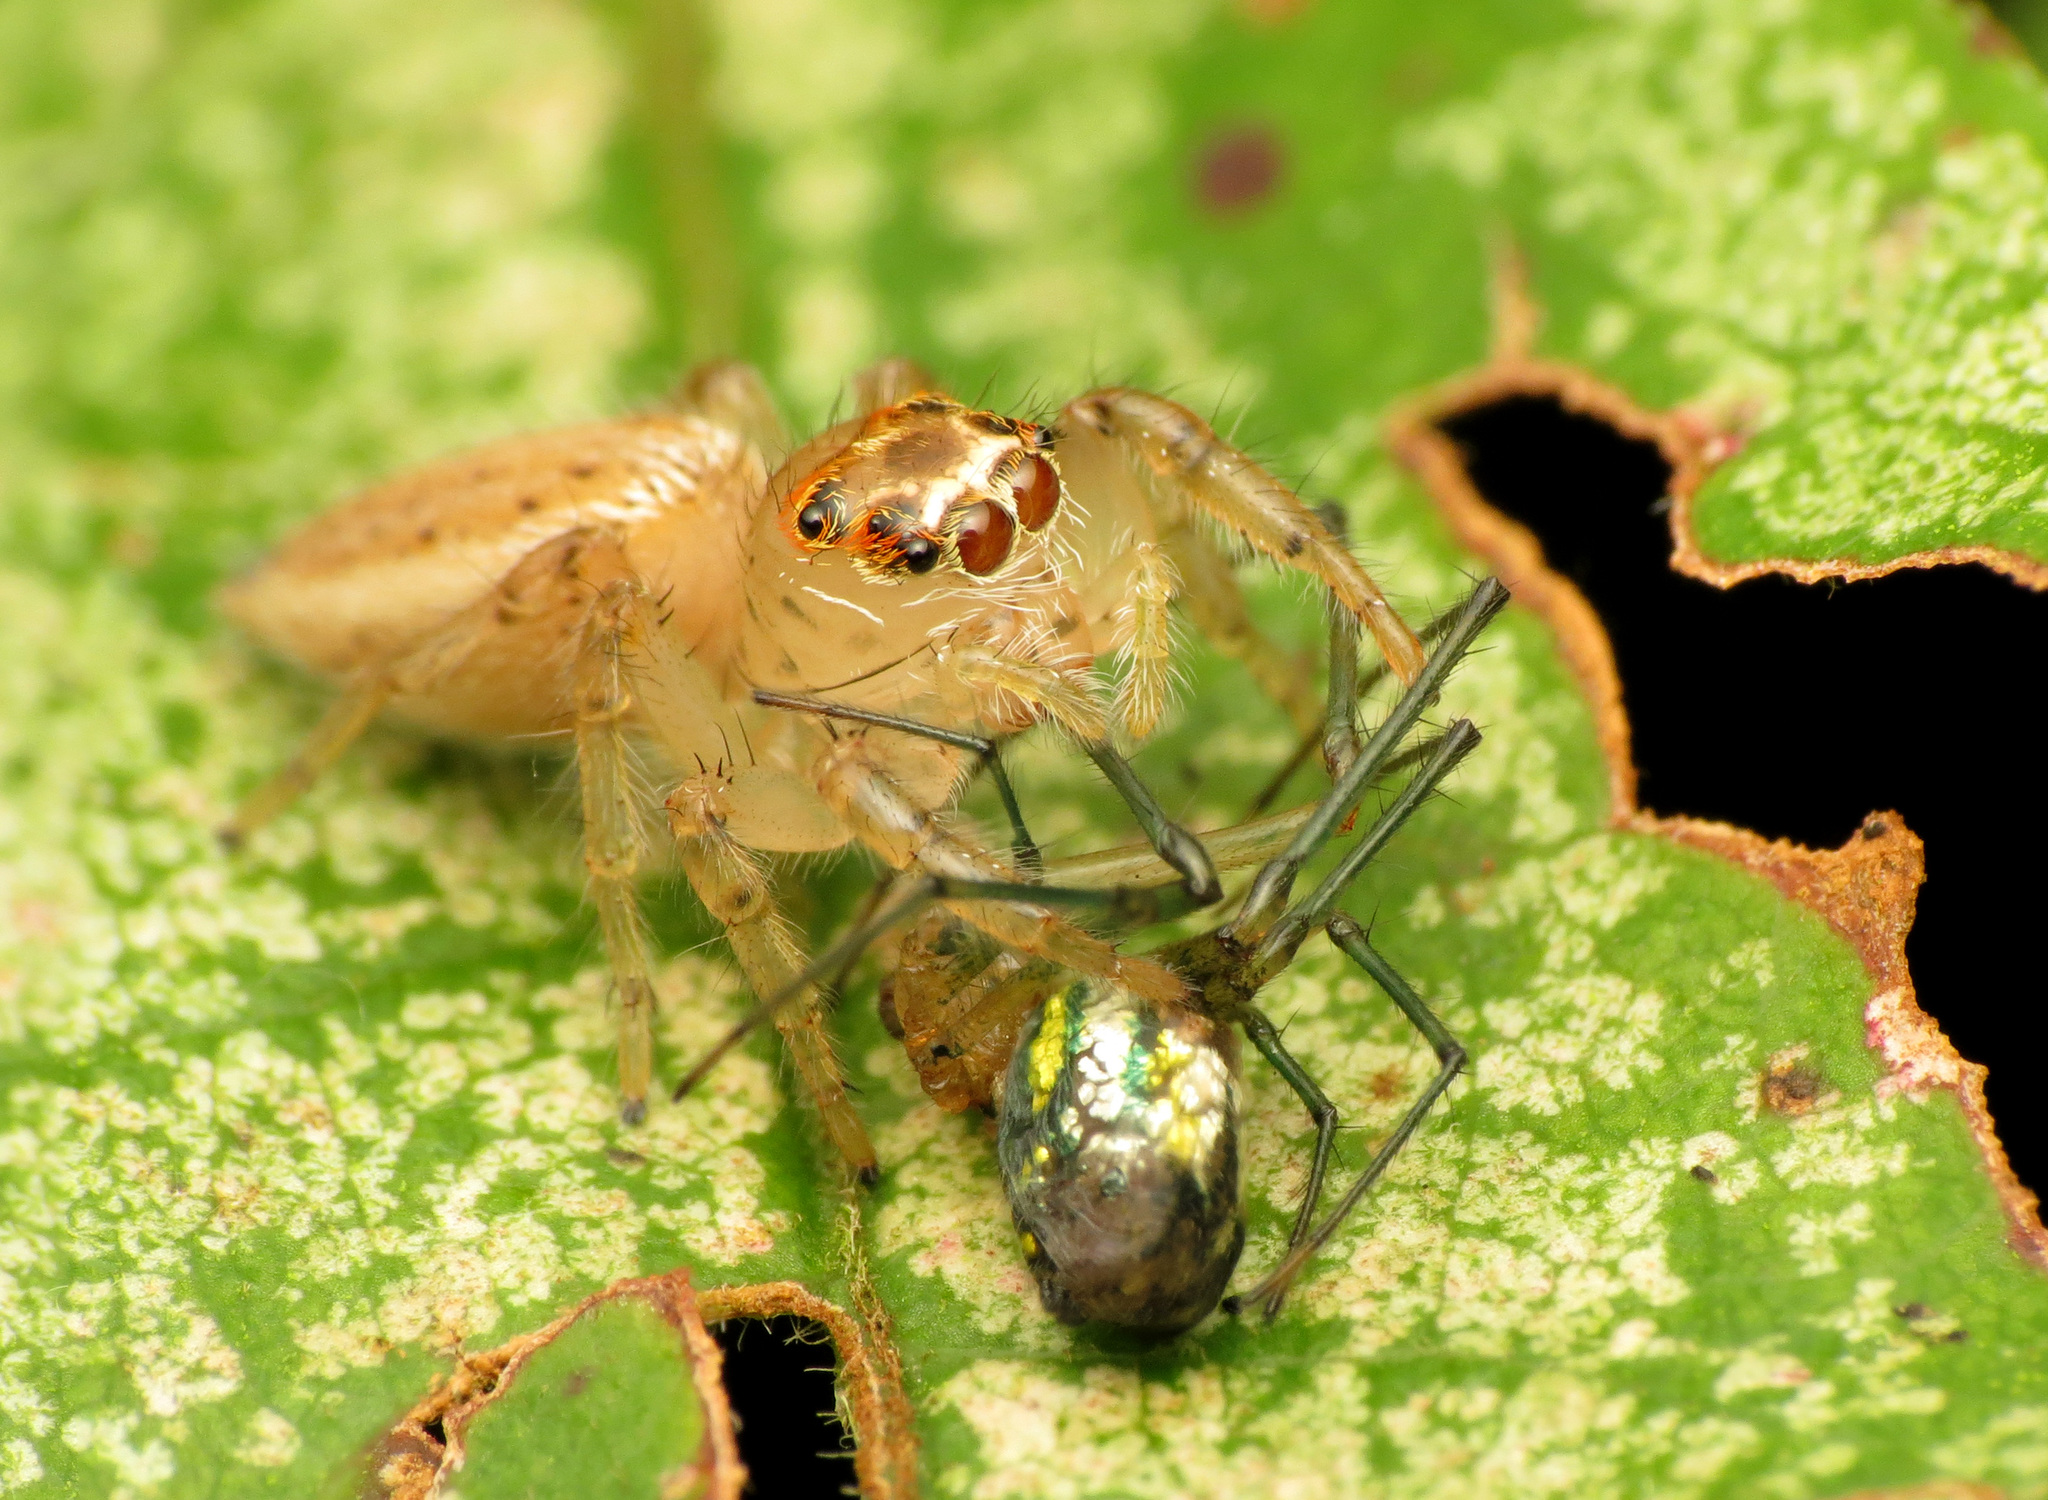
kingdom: Animalia
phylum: Arthropoda
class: Arachnida
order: Araneae
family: Salticidae
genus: Colonus
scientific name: Colonus sylvanus
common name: Jumping spiders
